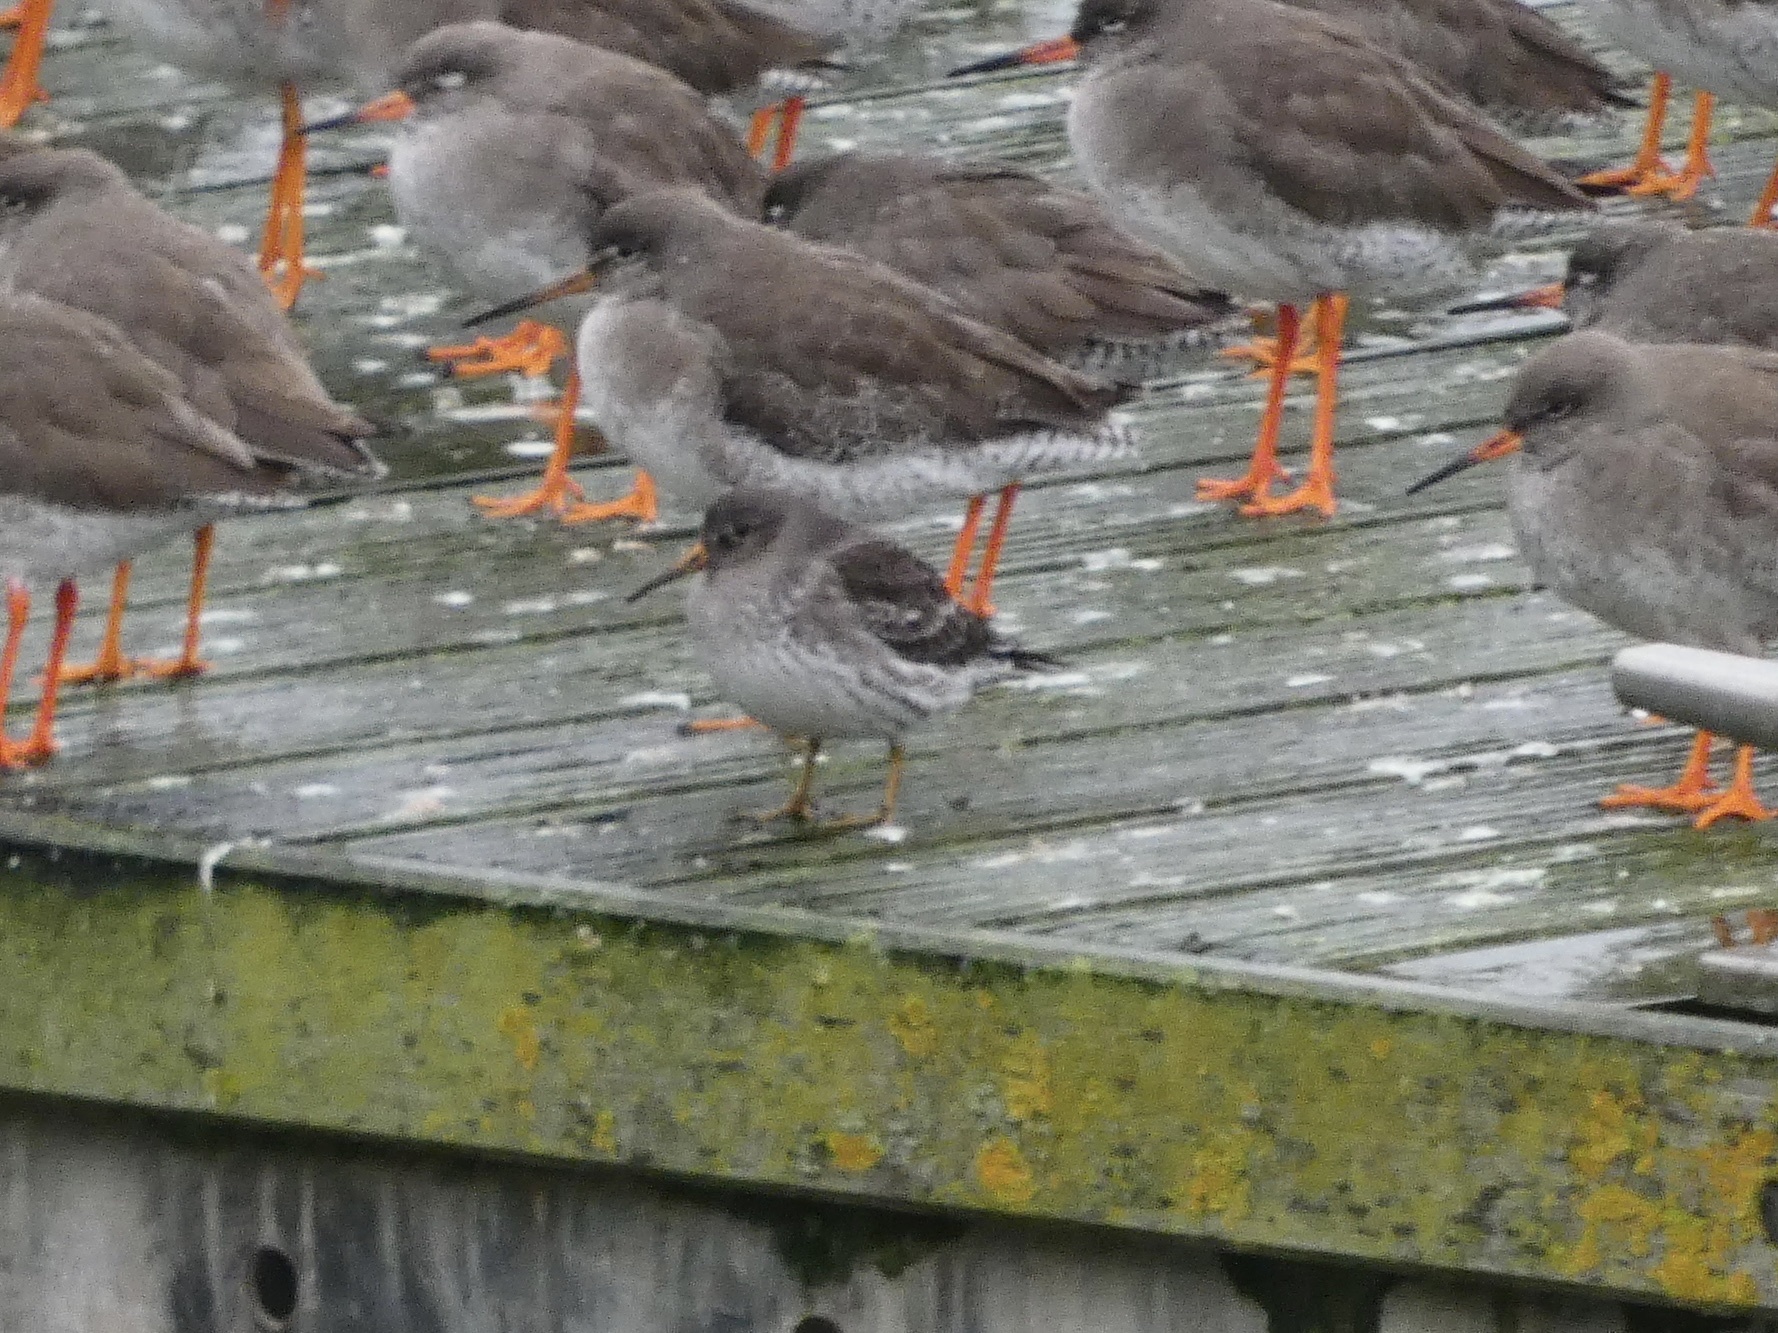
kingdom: Animalia
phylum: Chordata
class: Aves
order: Charadriiformes
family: Scolopacidae
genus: Calidris
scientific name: Calidris maritima
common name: Purple sandpiper
